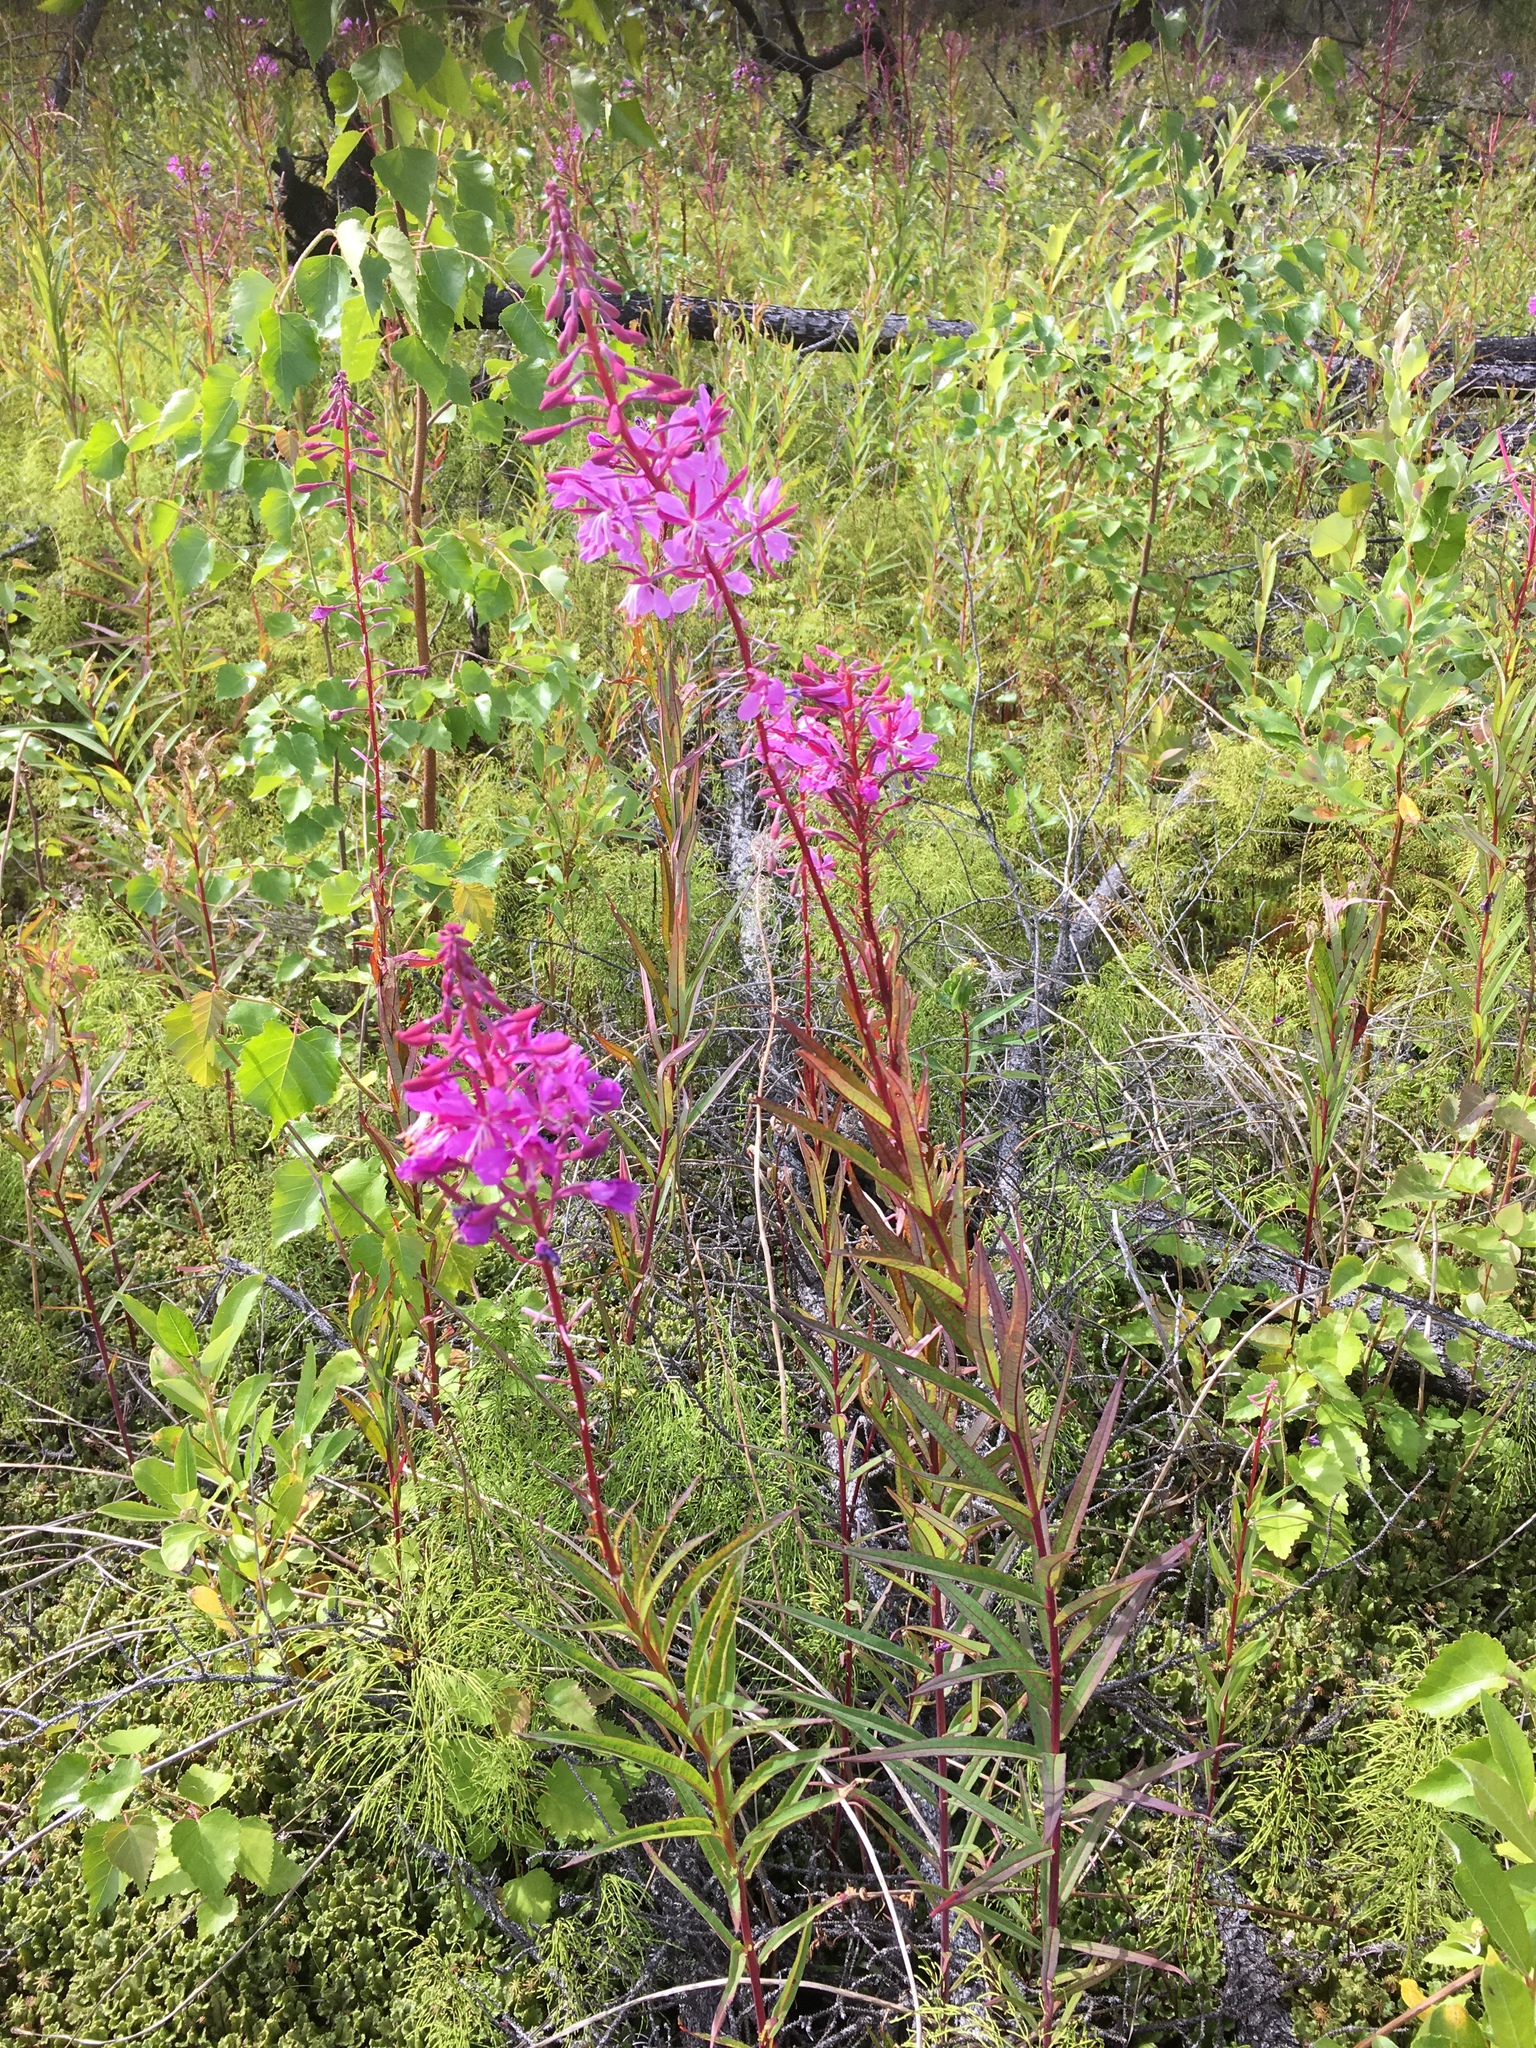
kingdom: Plantae
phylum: Tracheophyta
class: Magnoliopsida
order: Myrtales
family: Onagraceae
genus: Chamaenerion
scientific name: Chamaenerion angustifolium
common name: Fireweed
